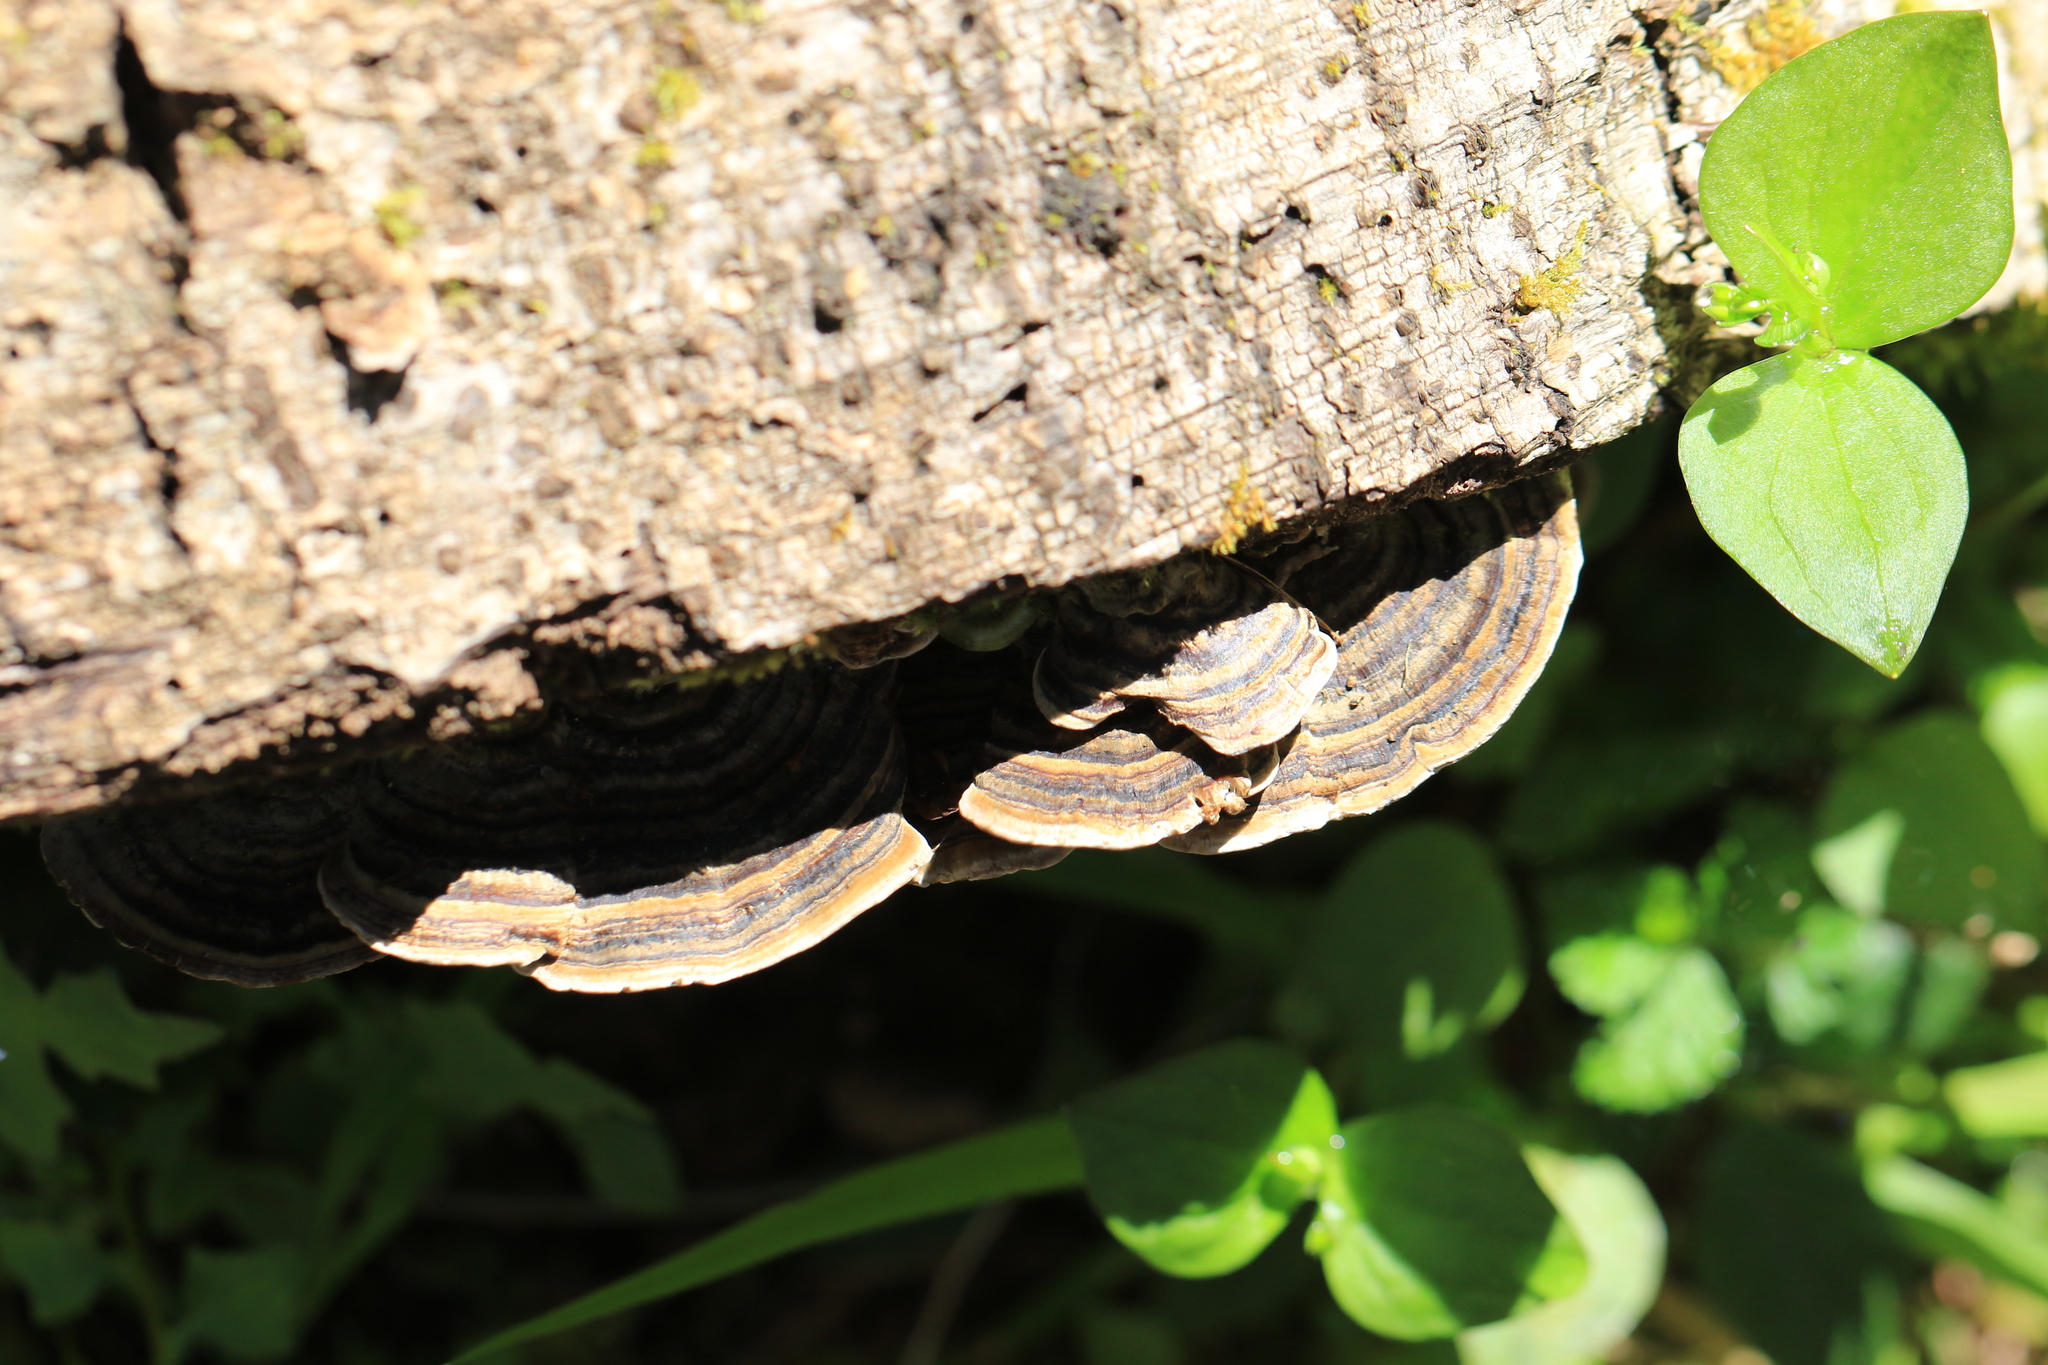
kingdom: Fungi
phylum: Basidiomycota
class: Agaricomycetes
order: Polyporales
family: Polyporaceae
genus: Trametes
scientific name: Trametes versicolor
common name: Turkeytail
